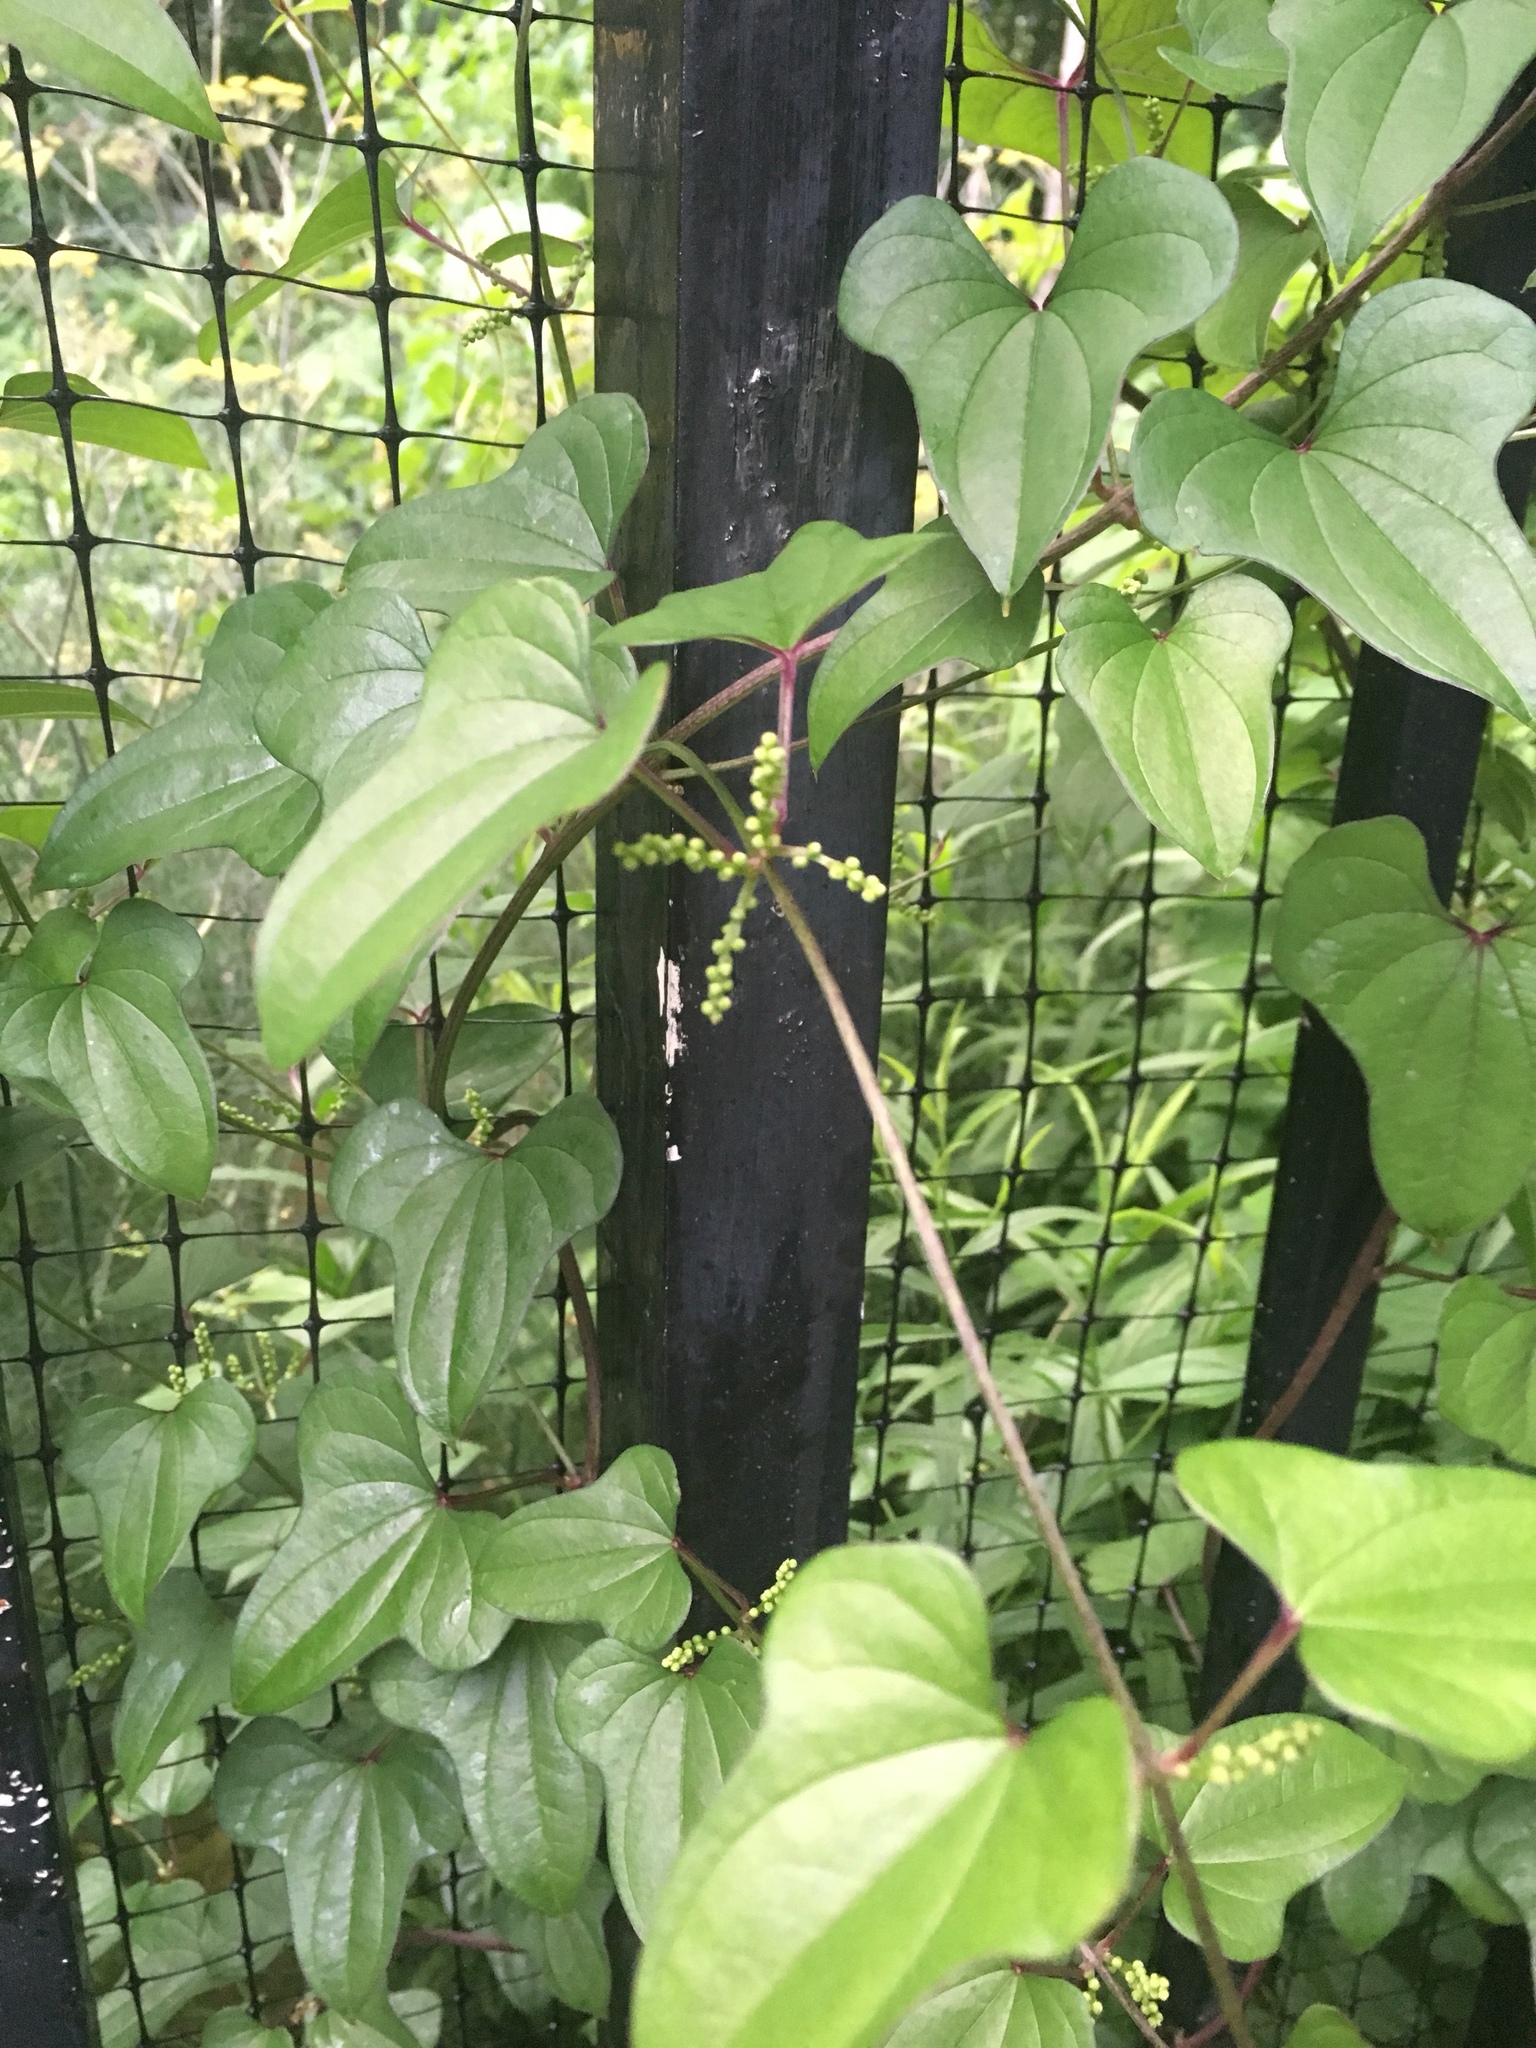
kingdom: Plantae
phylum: Tracheophyta
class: Liliopsida
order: Dioscoreales
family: Dioscoreaceae
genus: Dioscorea
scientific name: Dioscorea polystachya
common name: Chinese yam
